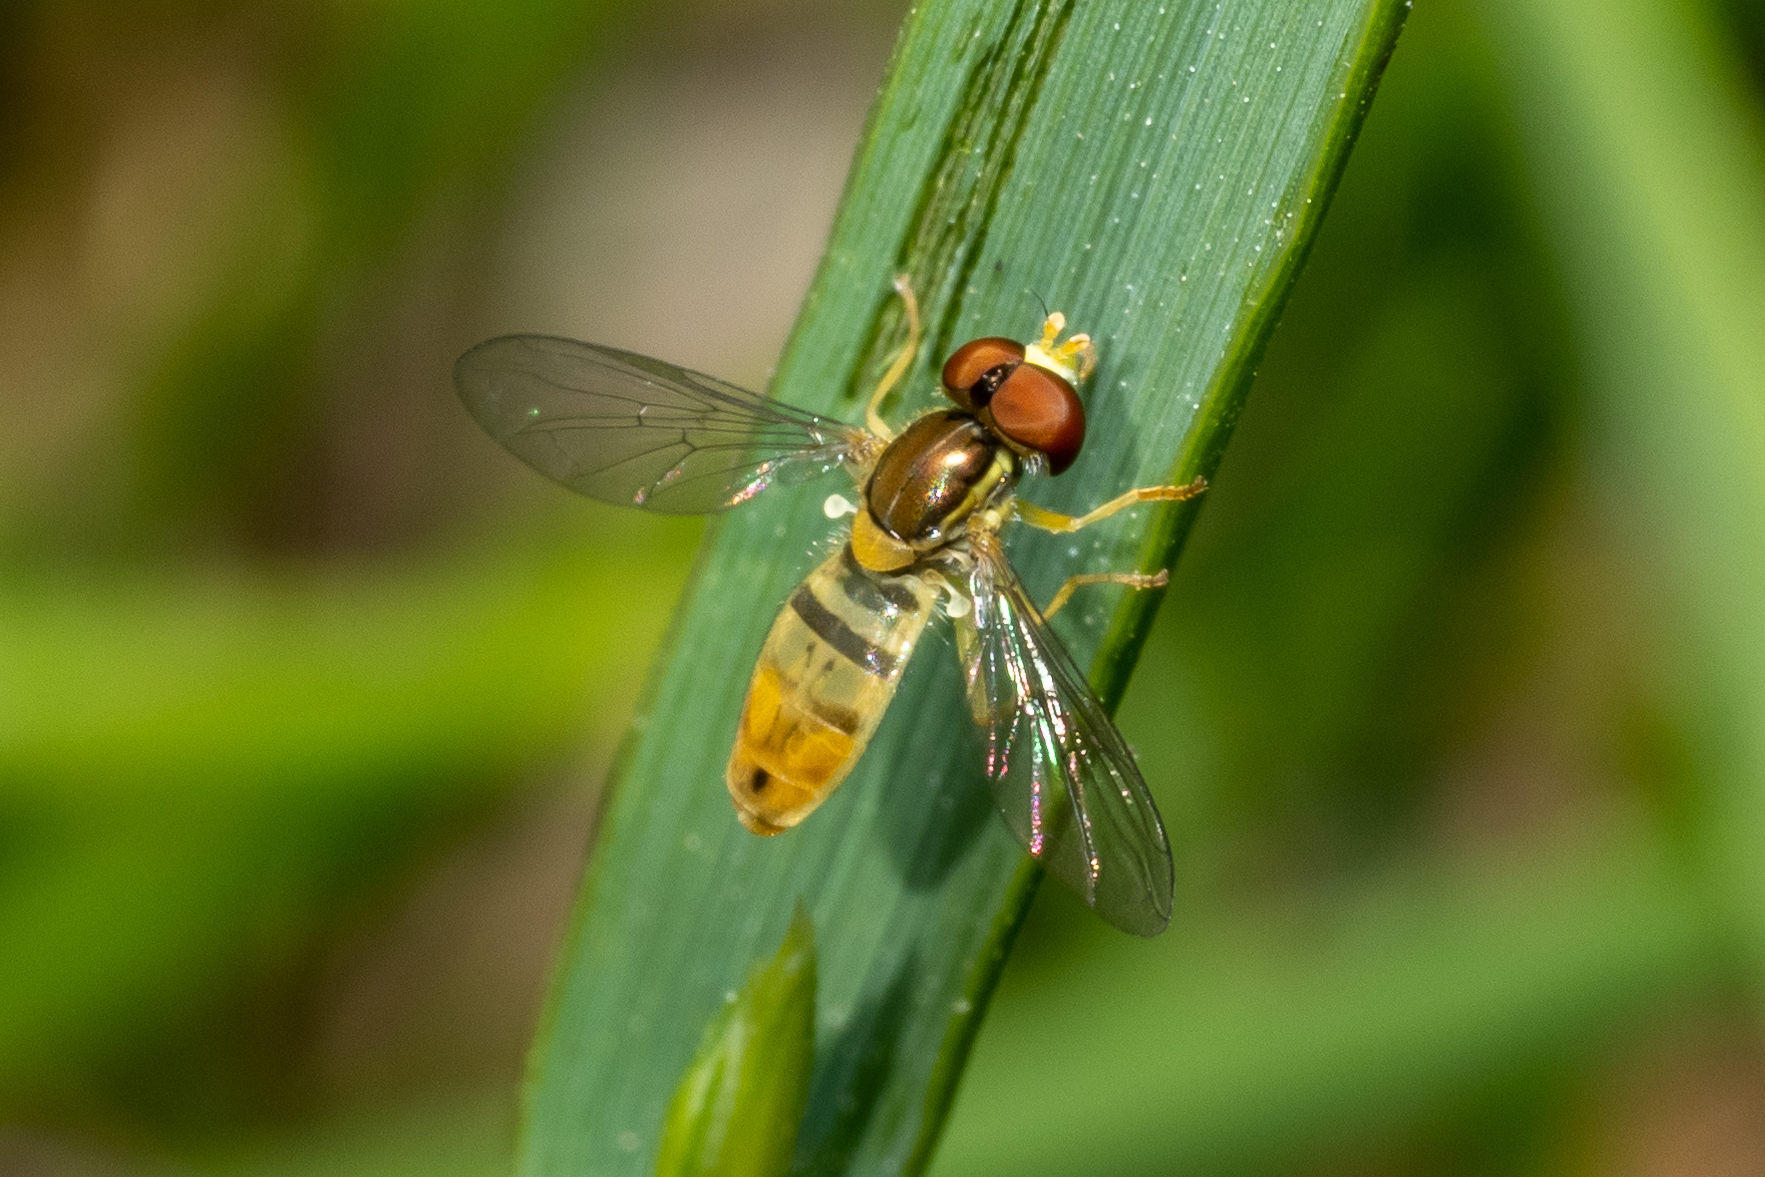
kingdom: Animalia
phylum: Arthropoda
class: Insecta
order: Diptera
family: Syrphidae
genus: Toxomerus
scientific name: Toxomerus marginatus
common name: Syrphid fly
